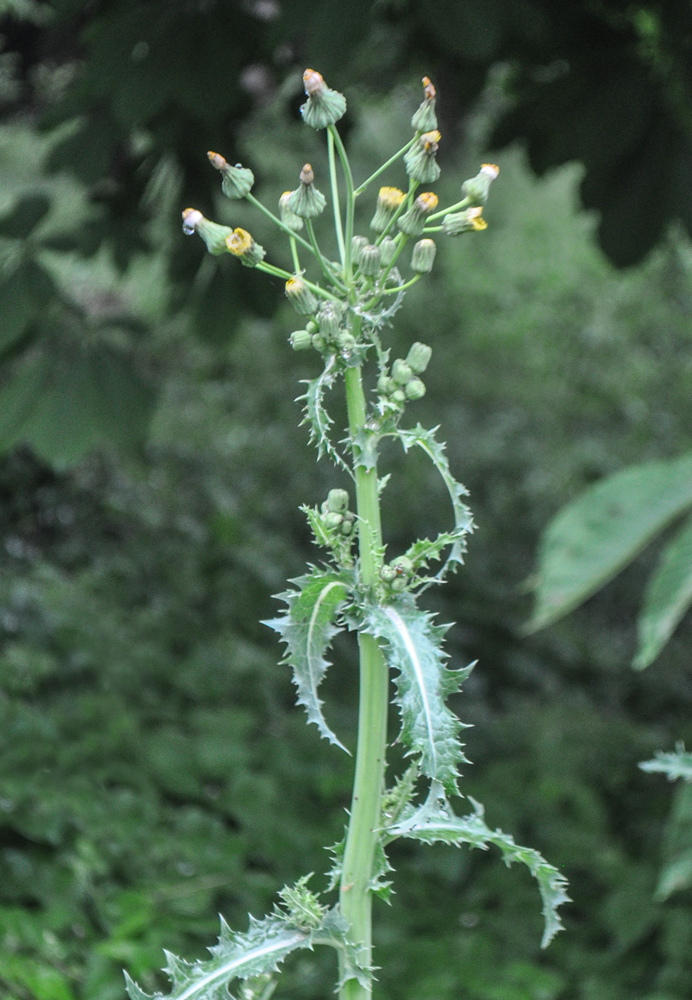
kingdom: Plantae
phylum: Tracheophyta
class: Magnoliopsida
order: Asterales
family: Asteraceae
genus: Sonchus
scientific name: Sonchus asper
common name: Prickly sow-thistle
